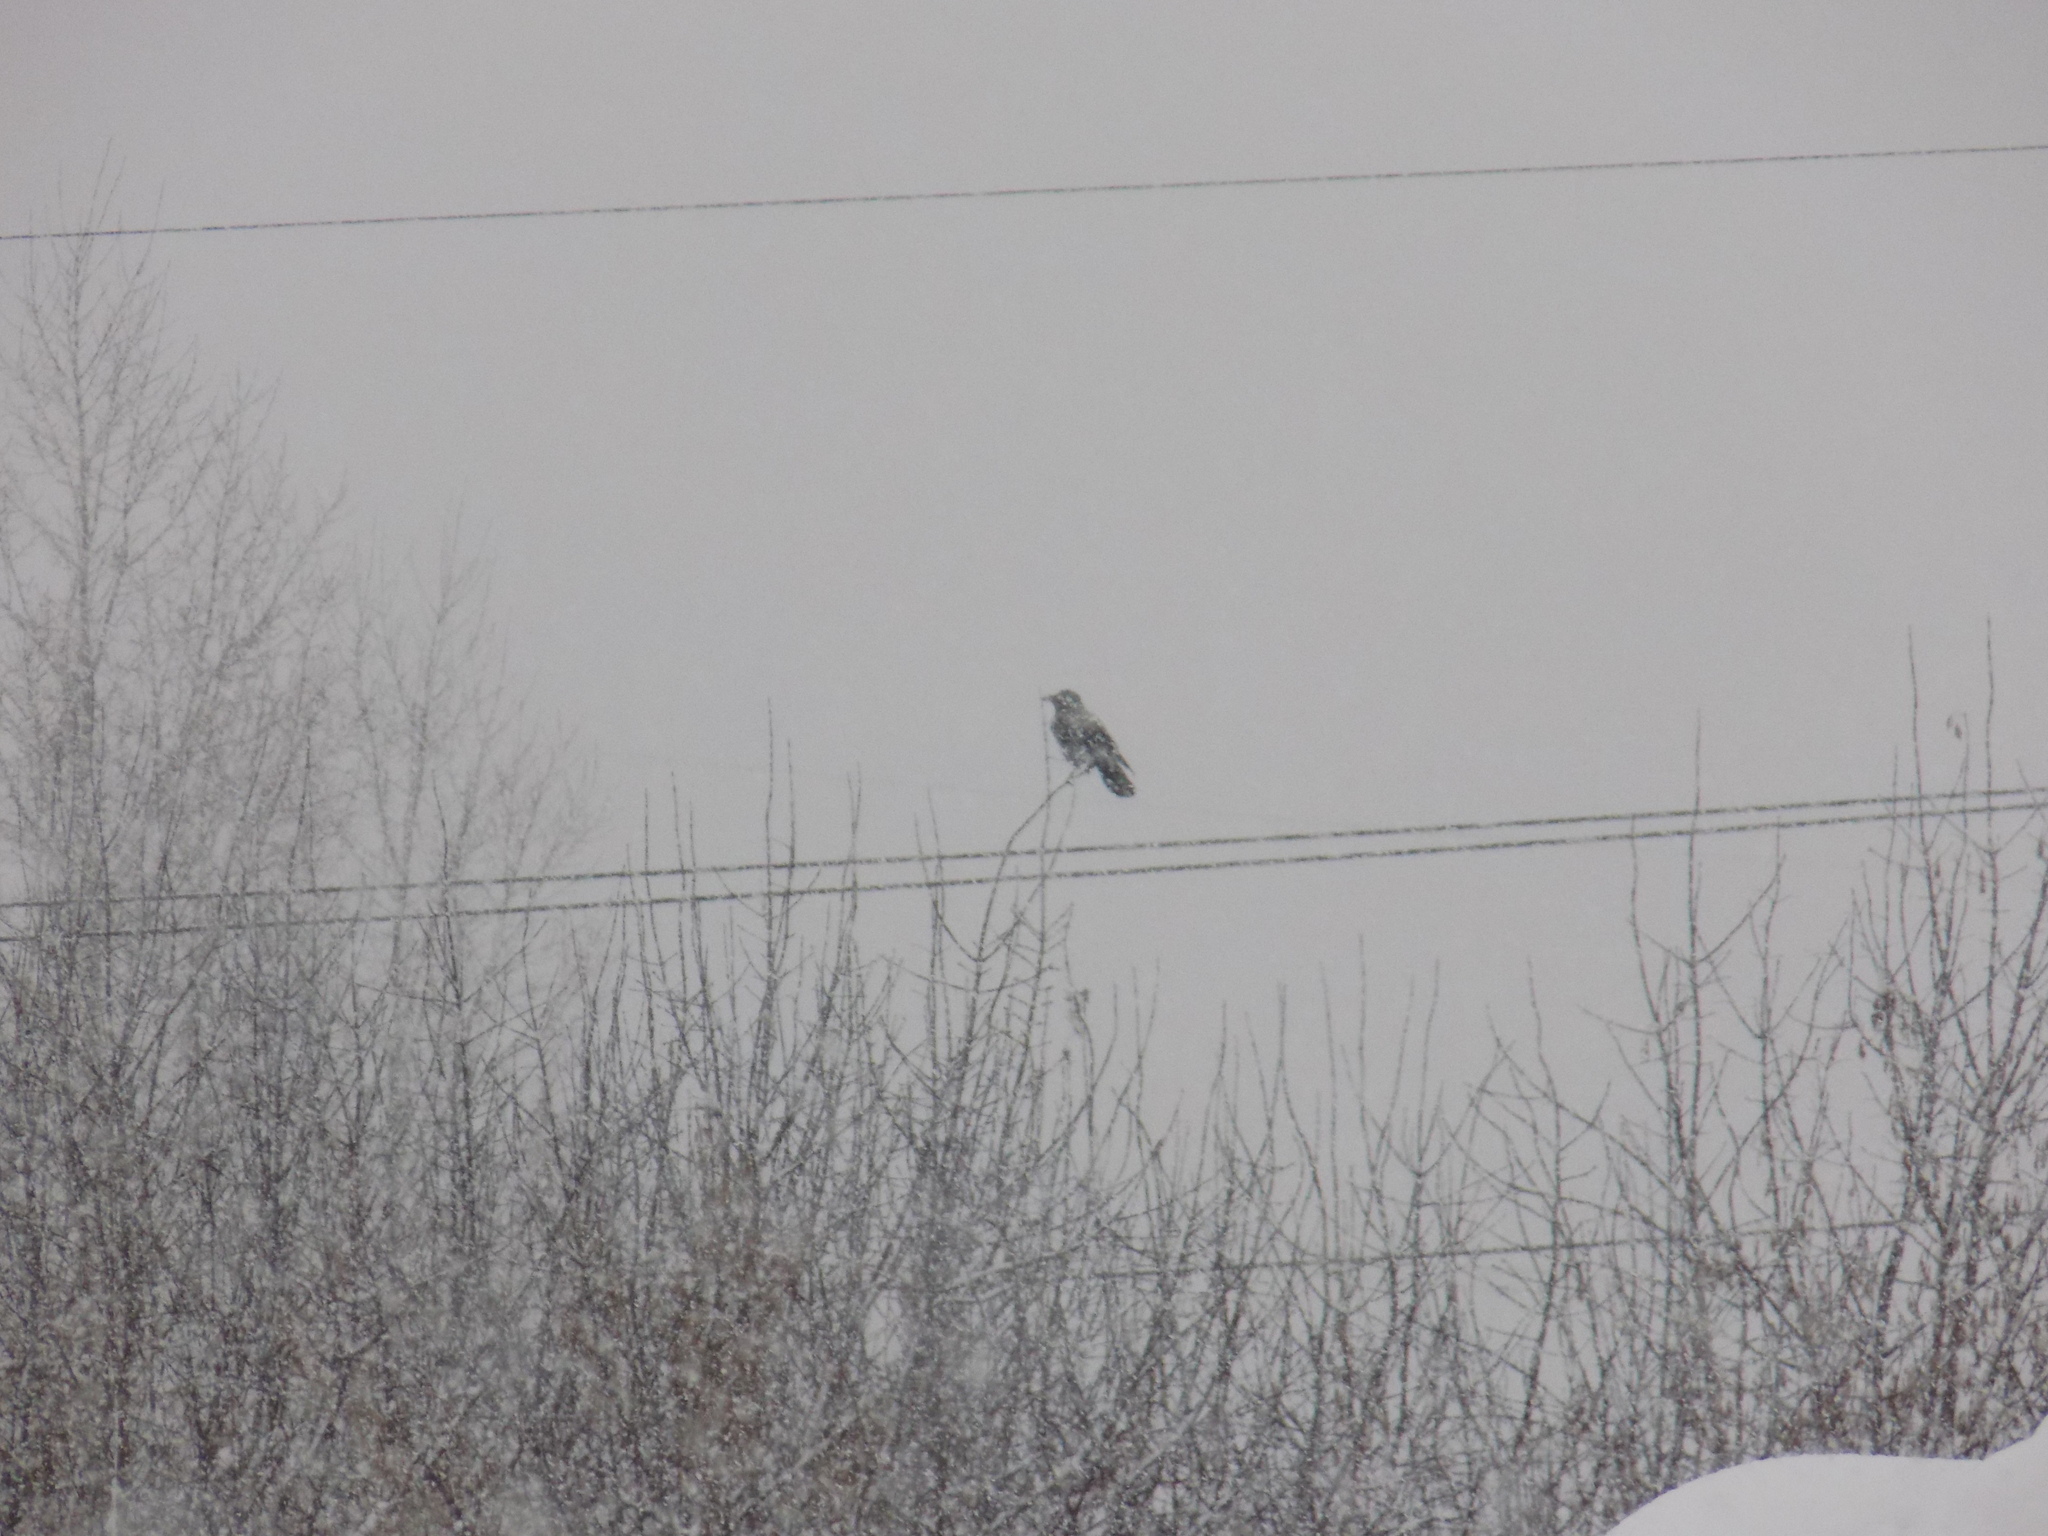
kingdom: Animalia
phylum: Chordata
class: Aves
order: Passeriformes
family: Corvidae
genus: Corvus
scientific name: Corvus cornix
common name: Hooded crow
